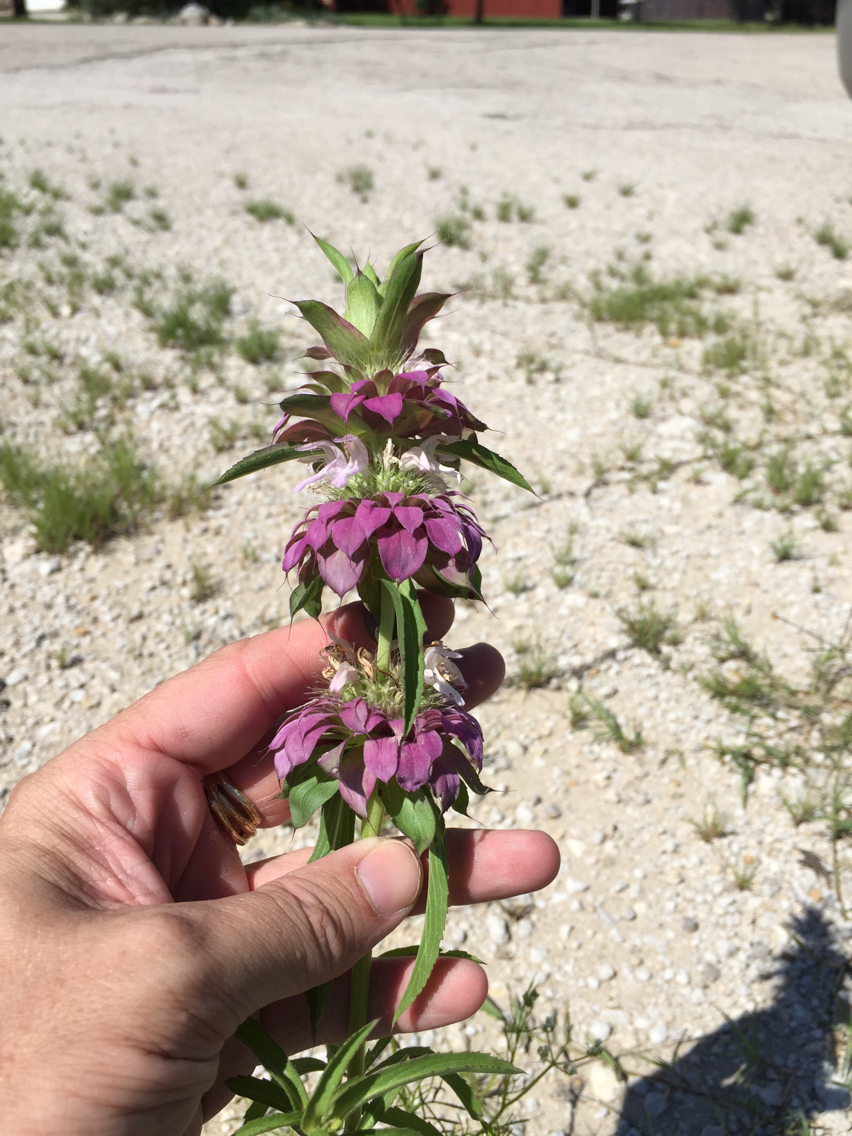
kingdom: Plantae
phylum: Tracheophyta
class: Magnoliopsida
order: Lamiales
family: Lamiaceae
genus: Monarda
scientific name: Monarda citriodora
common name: Lemon beebalm
